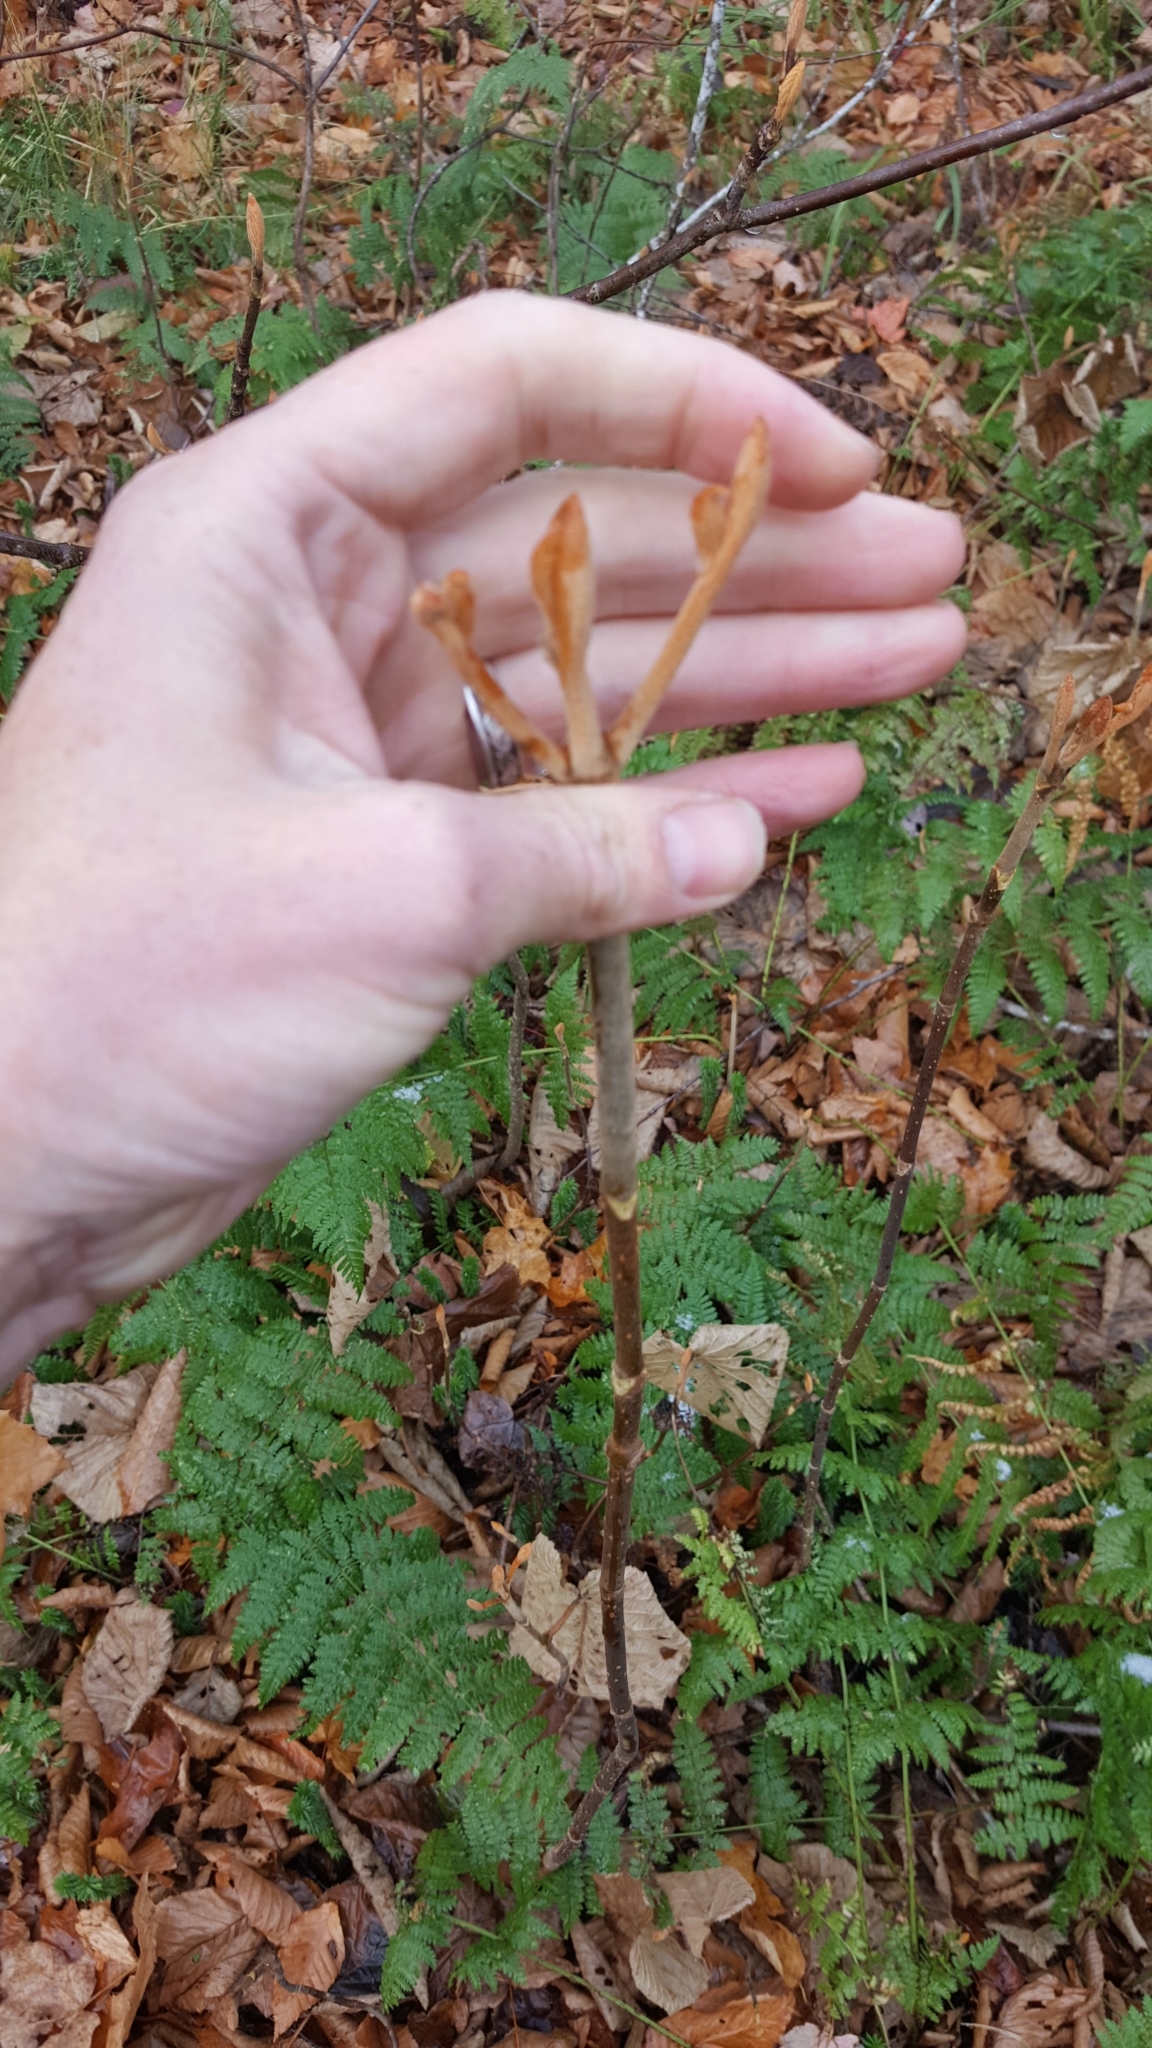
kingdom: Plantae
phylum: Tracheophyta
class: Magnoliopsida
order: Dipsacales
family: Viburnaceae
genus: Viburnum
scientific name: Viburnum lantanoides
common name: Hobblebush
